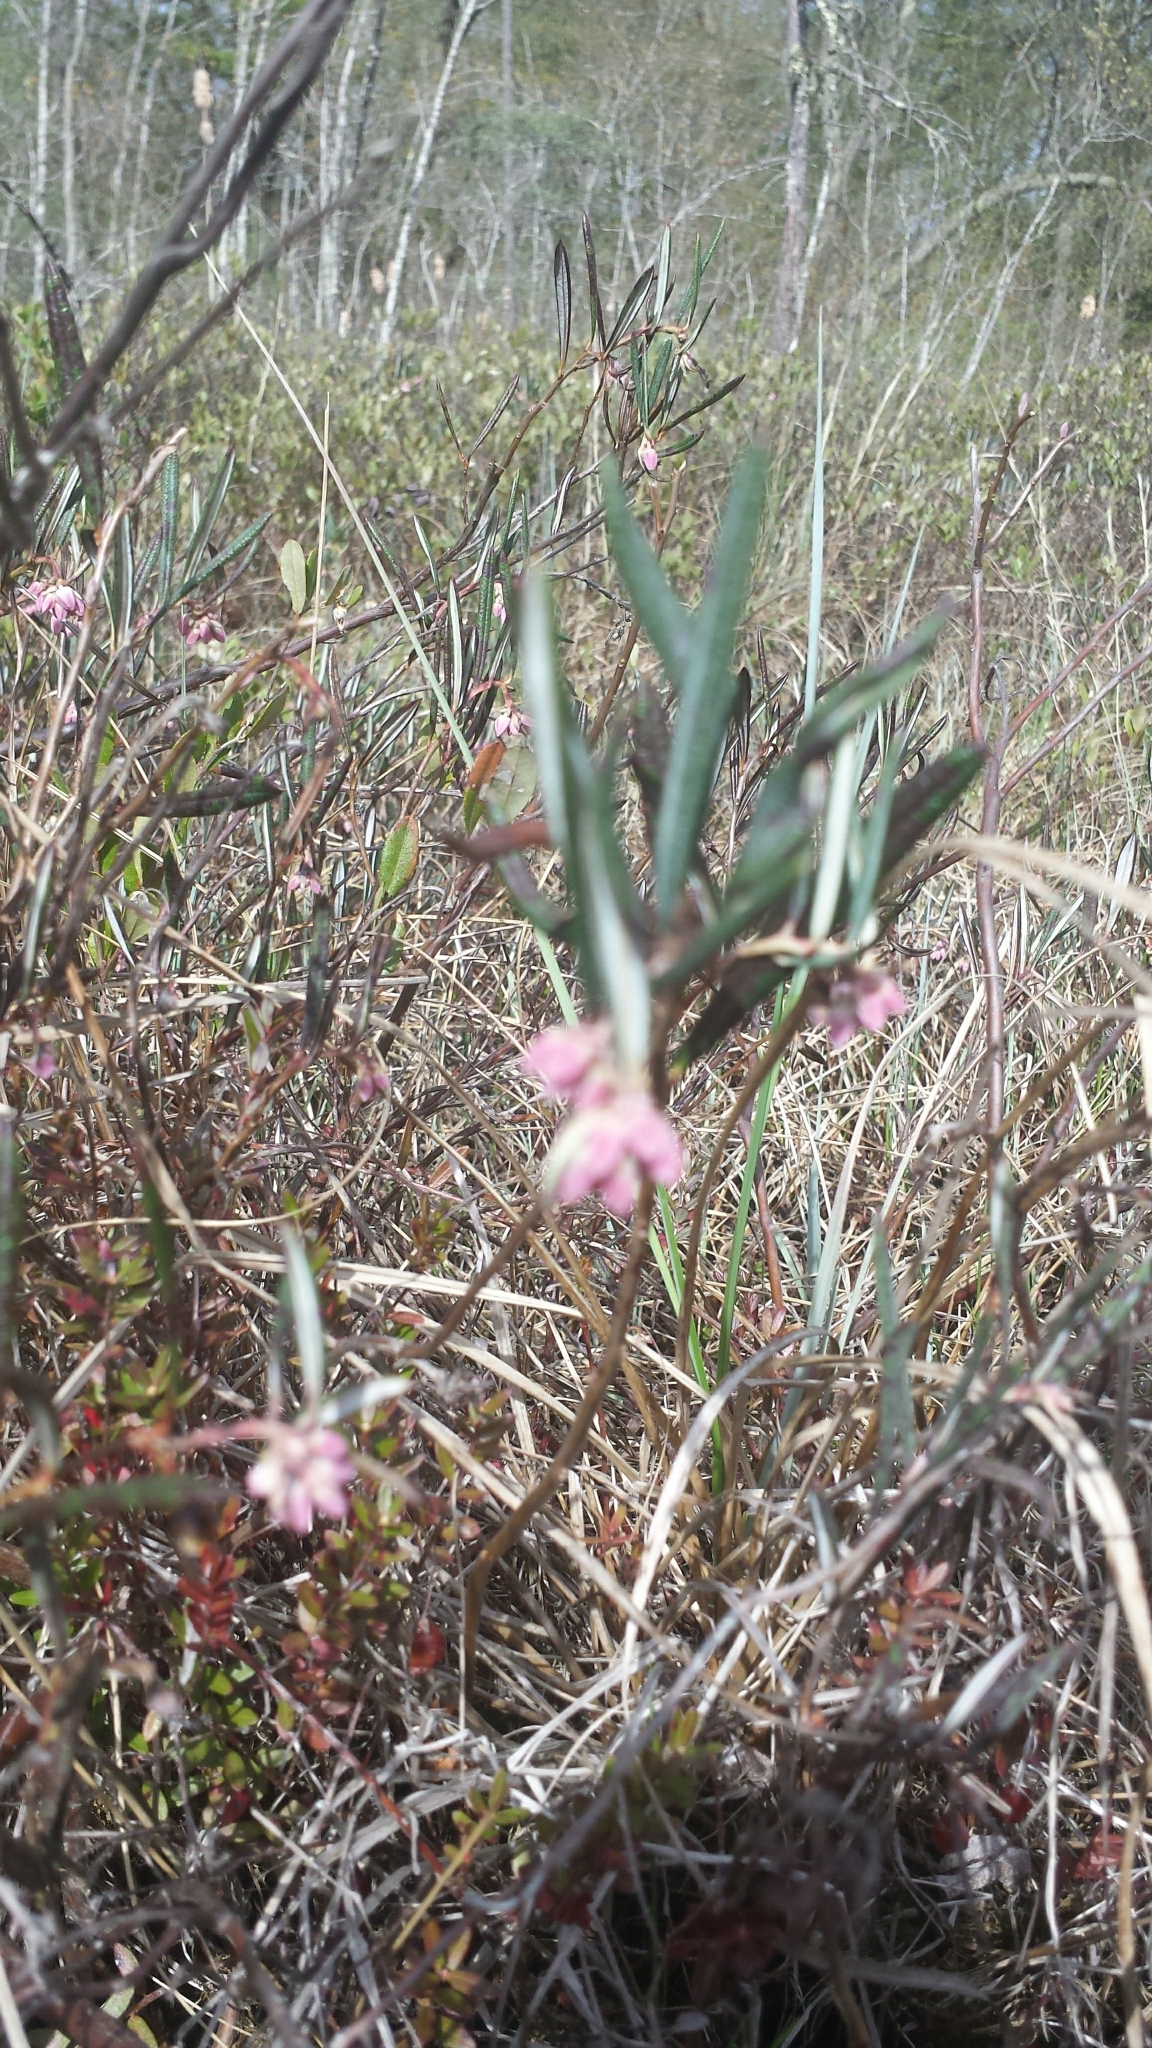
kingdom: Plantae
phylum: Tracheophyta
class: Magnoliopsida
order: Ericales
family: Ericaceae
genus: Andromeda
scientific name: Andromeda polifolia
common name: Bog-rosemary
